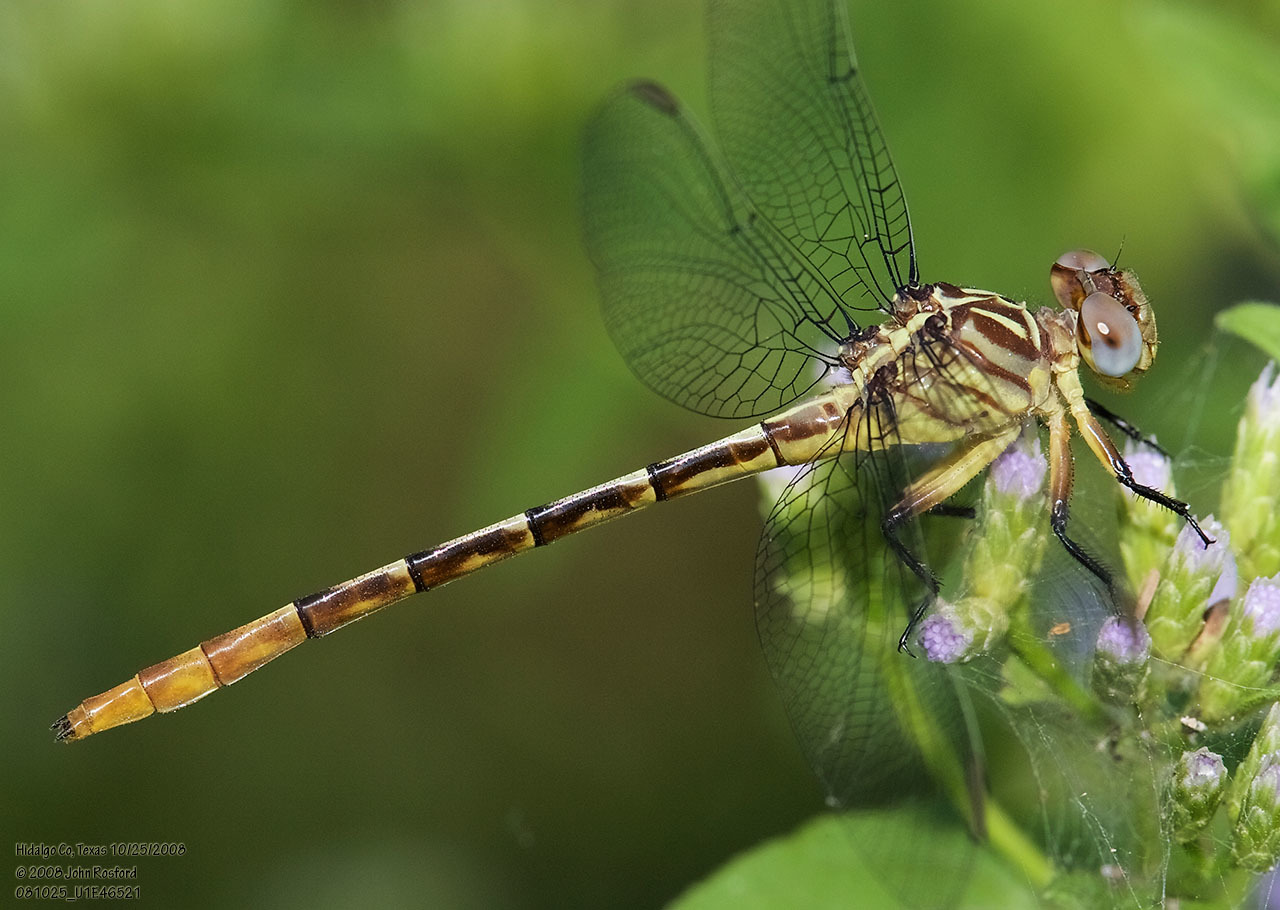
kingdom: Animalia
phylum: Arthropoda
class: Insecta
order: Odonata
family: Gomphidae
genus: Stylurus
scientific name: Stylurus plagiatus
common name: Russet-tipped clubtail
